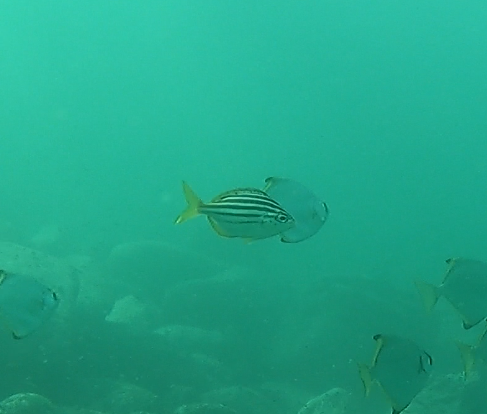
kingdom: Animalia
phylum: Chordata
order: Perciformes
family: Kyphosidae
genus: Atypichthys
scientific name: Atypichthys strigatus
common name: Australian mado
